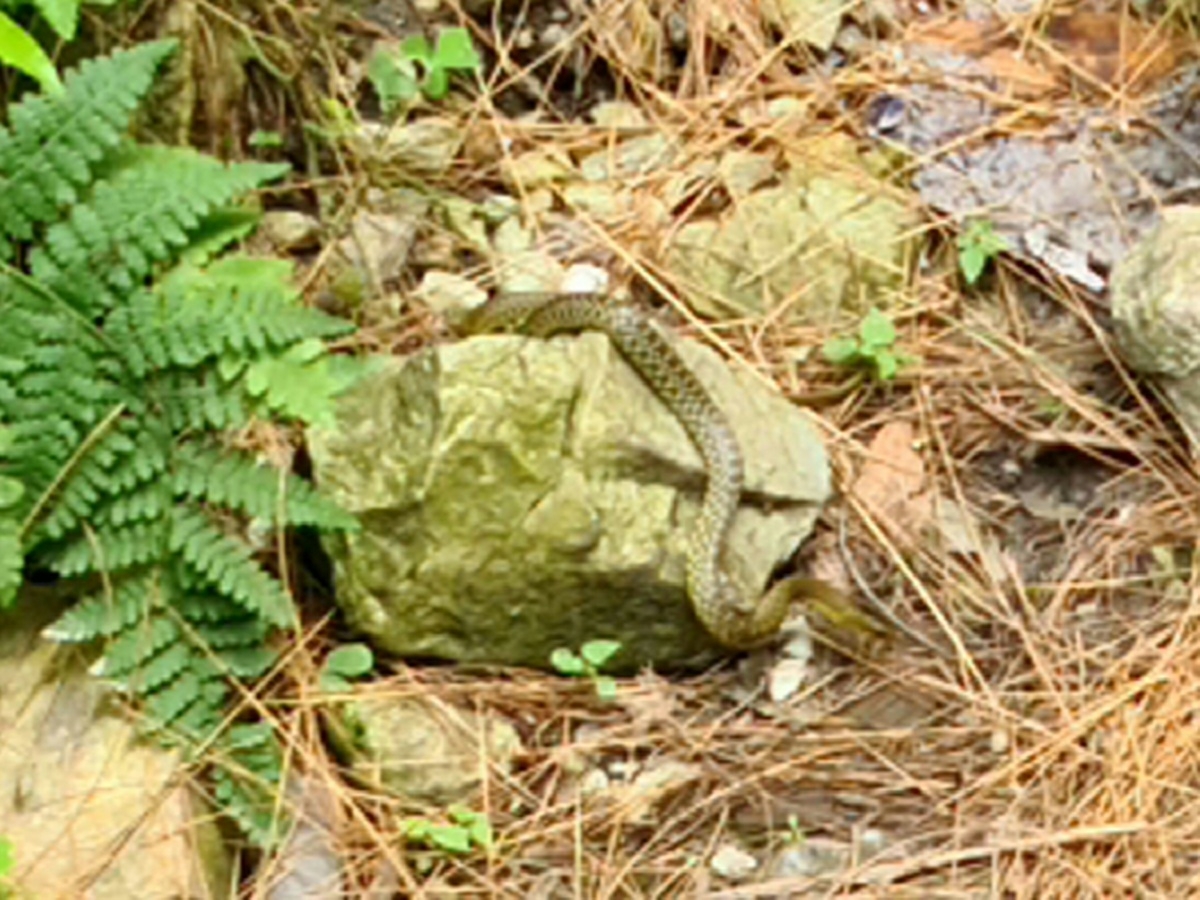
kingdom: Animalia
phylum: Chordata
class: Squamata
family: Colubridae
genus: Elaphe
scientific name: Elaphe hodgsoni
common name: English common name not available
